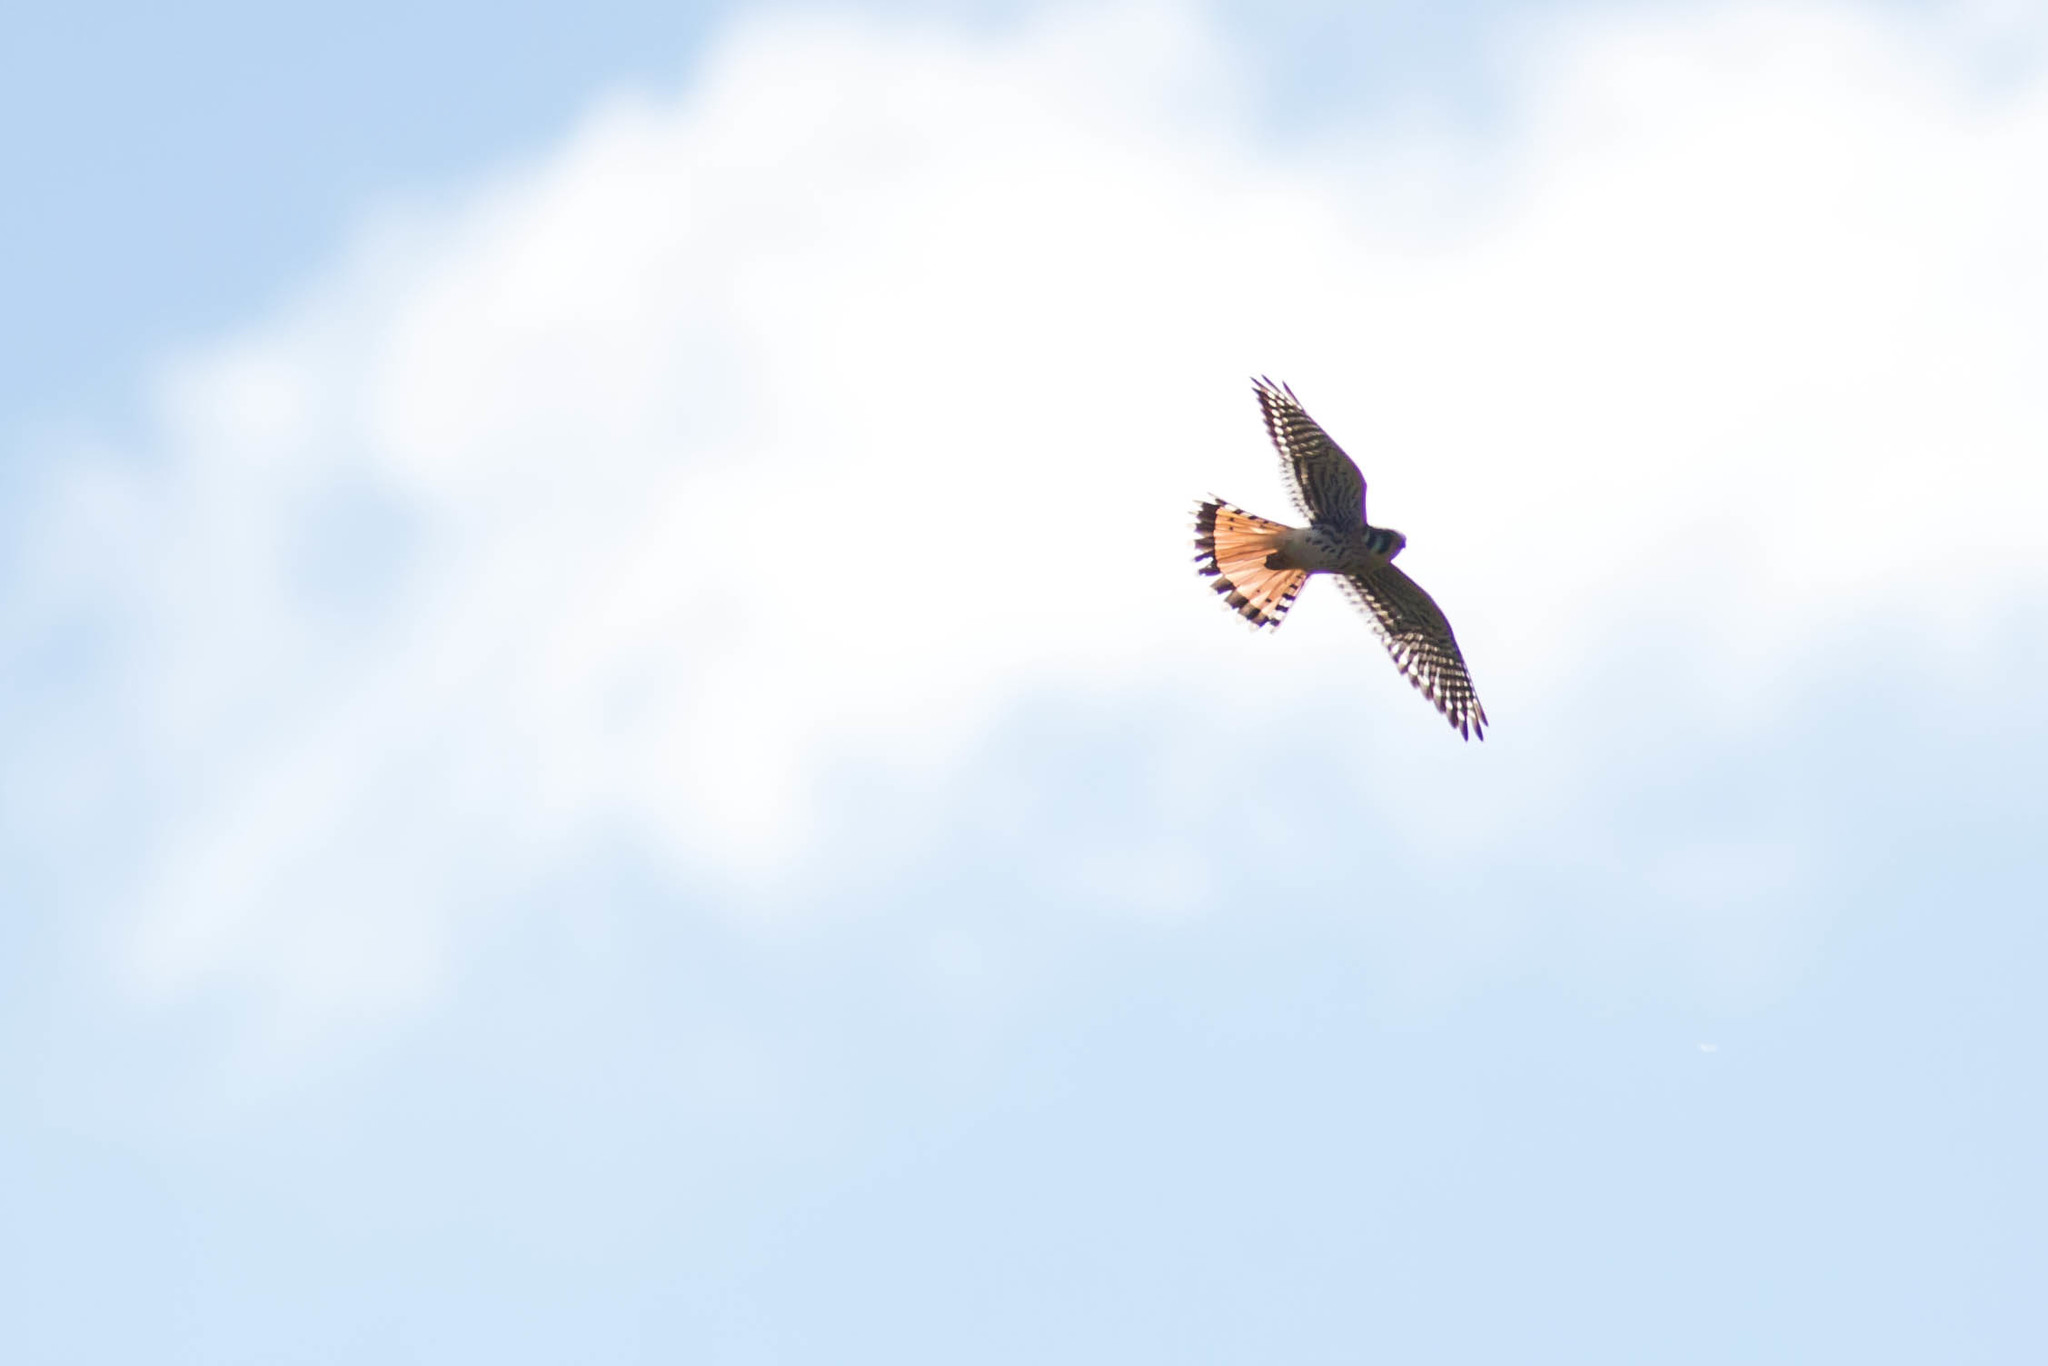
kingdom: Animalia
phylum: Chordata
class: Aves
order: Falconiformes
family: Falconidae
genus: Falco
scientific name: Falco sparverius
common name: American kestrel
